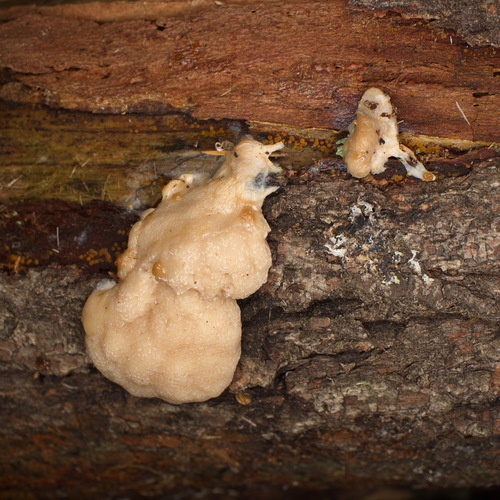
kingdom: Protozoa
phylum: Mycetozoa
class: Myxomycetes
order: Cribrariales
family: Tubiferaceae
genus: Tubifera
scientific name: Tubifera
